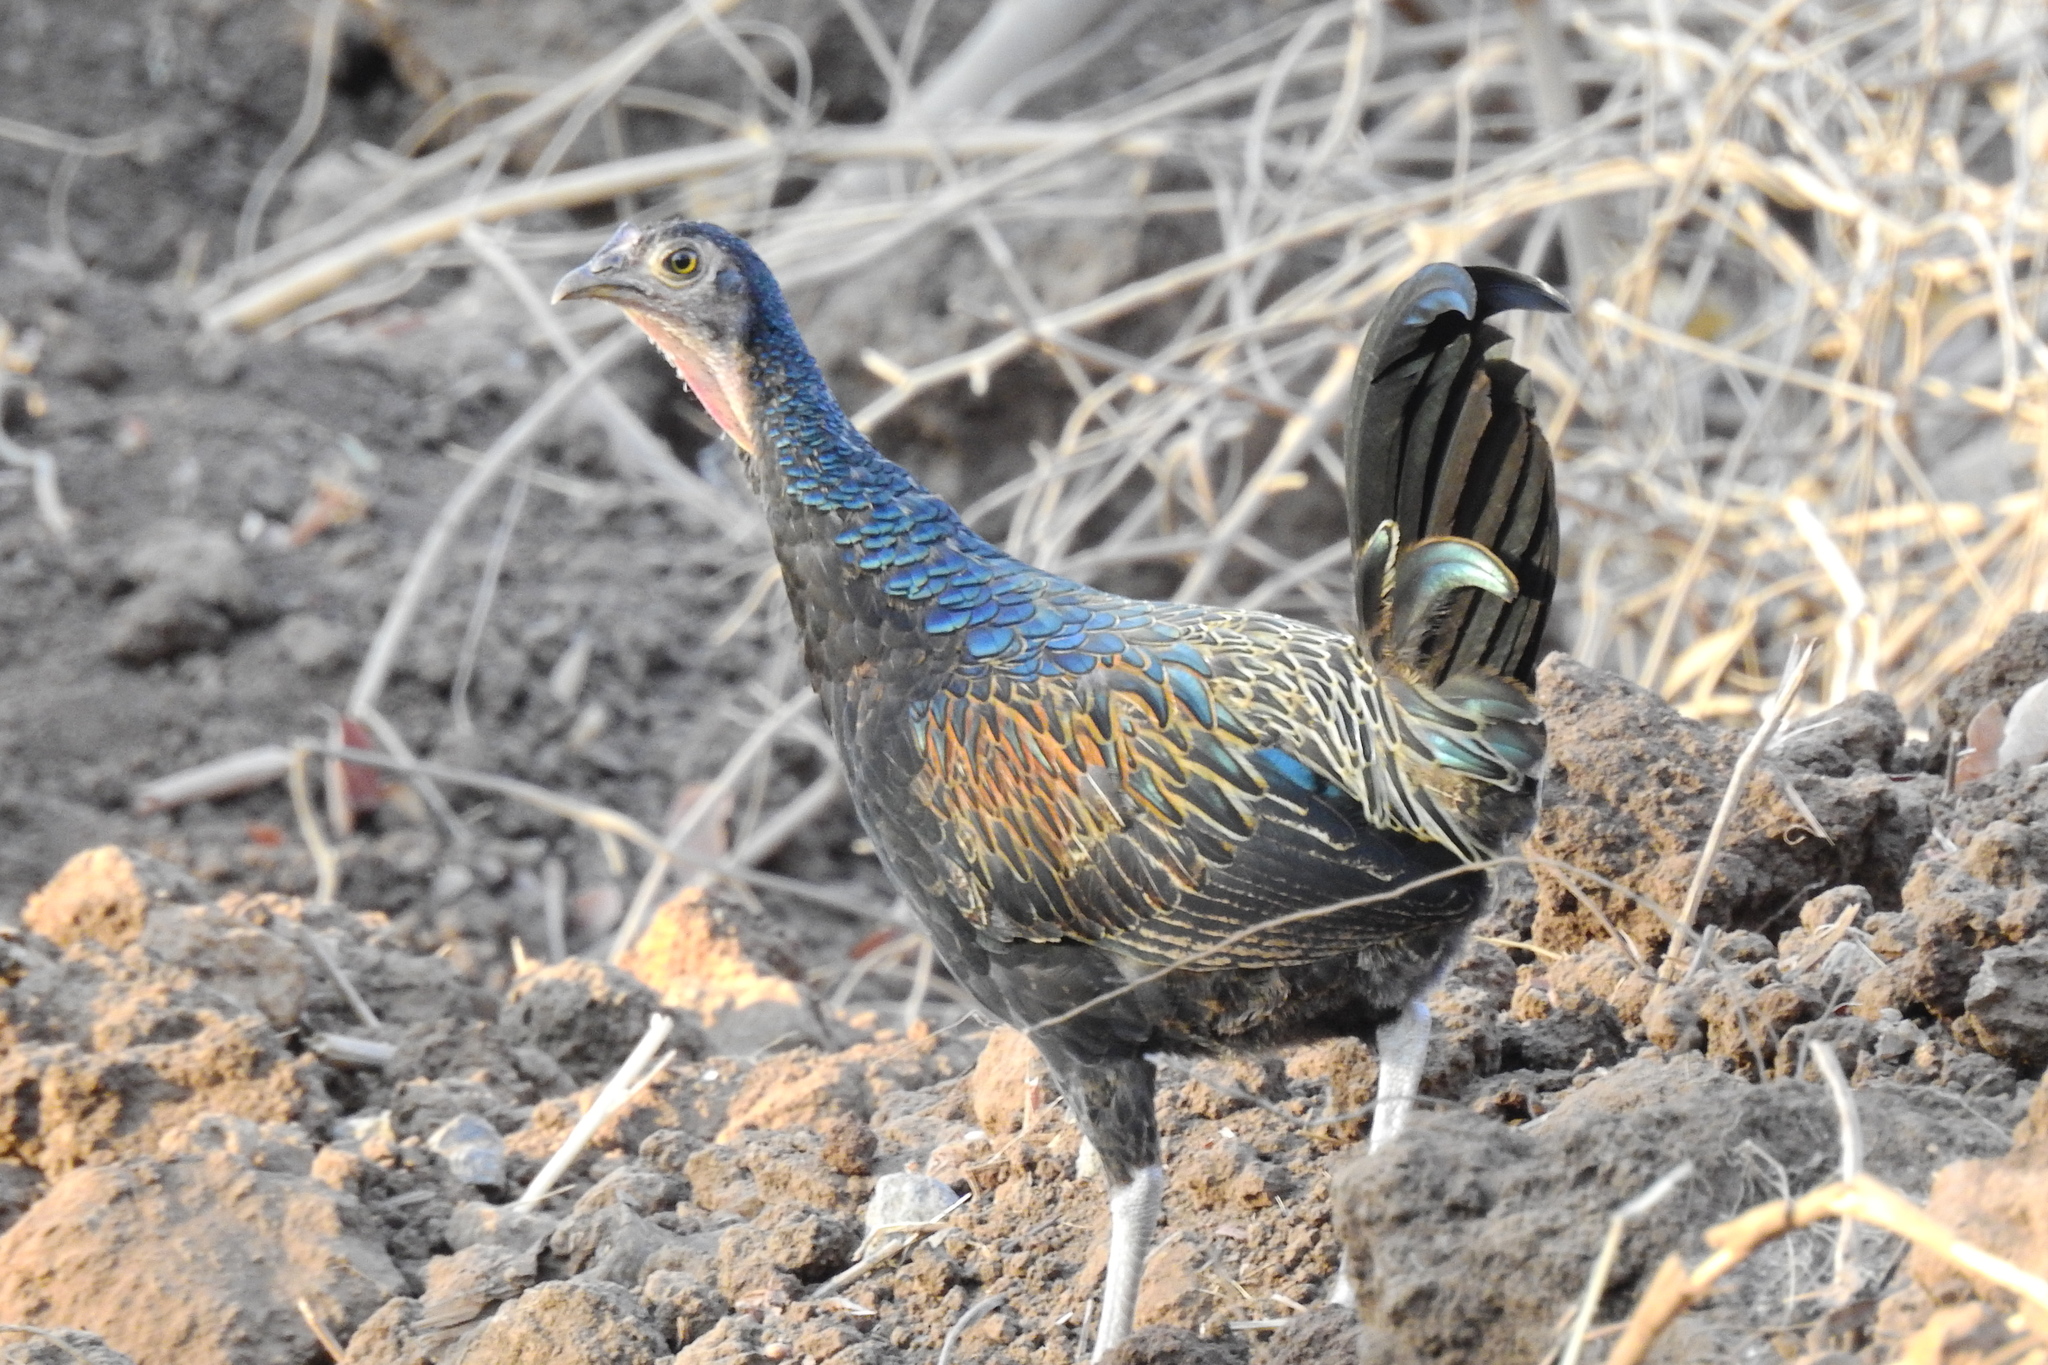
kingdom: Animalia
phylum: Chordata
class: Aves
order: Galliformes
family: Phasianidae
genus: Gallus
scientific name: Gallus varius
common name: Green junglefowl
